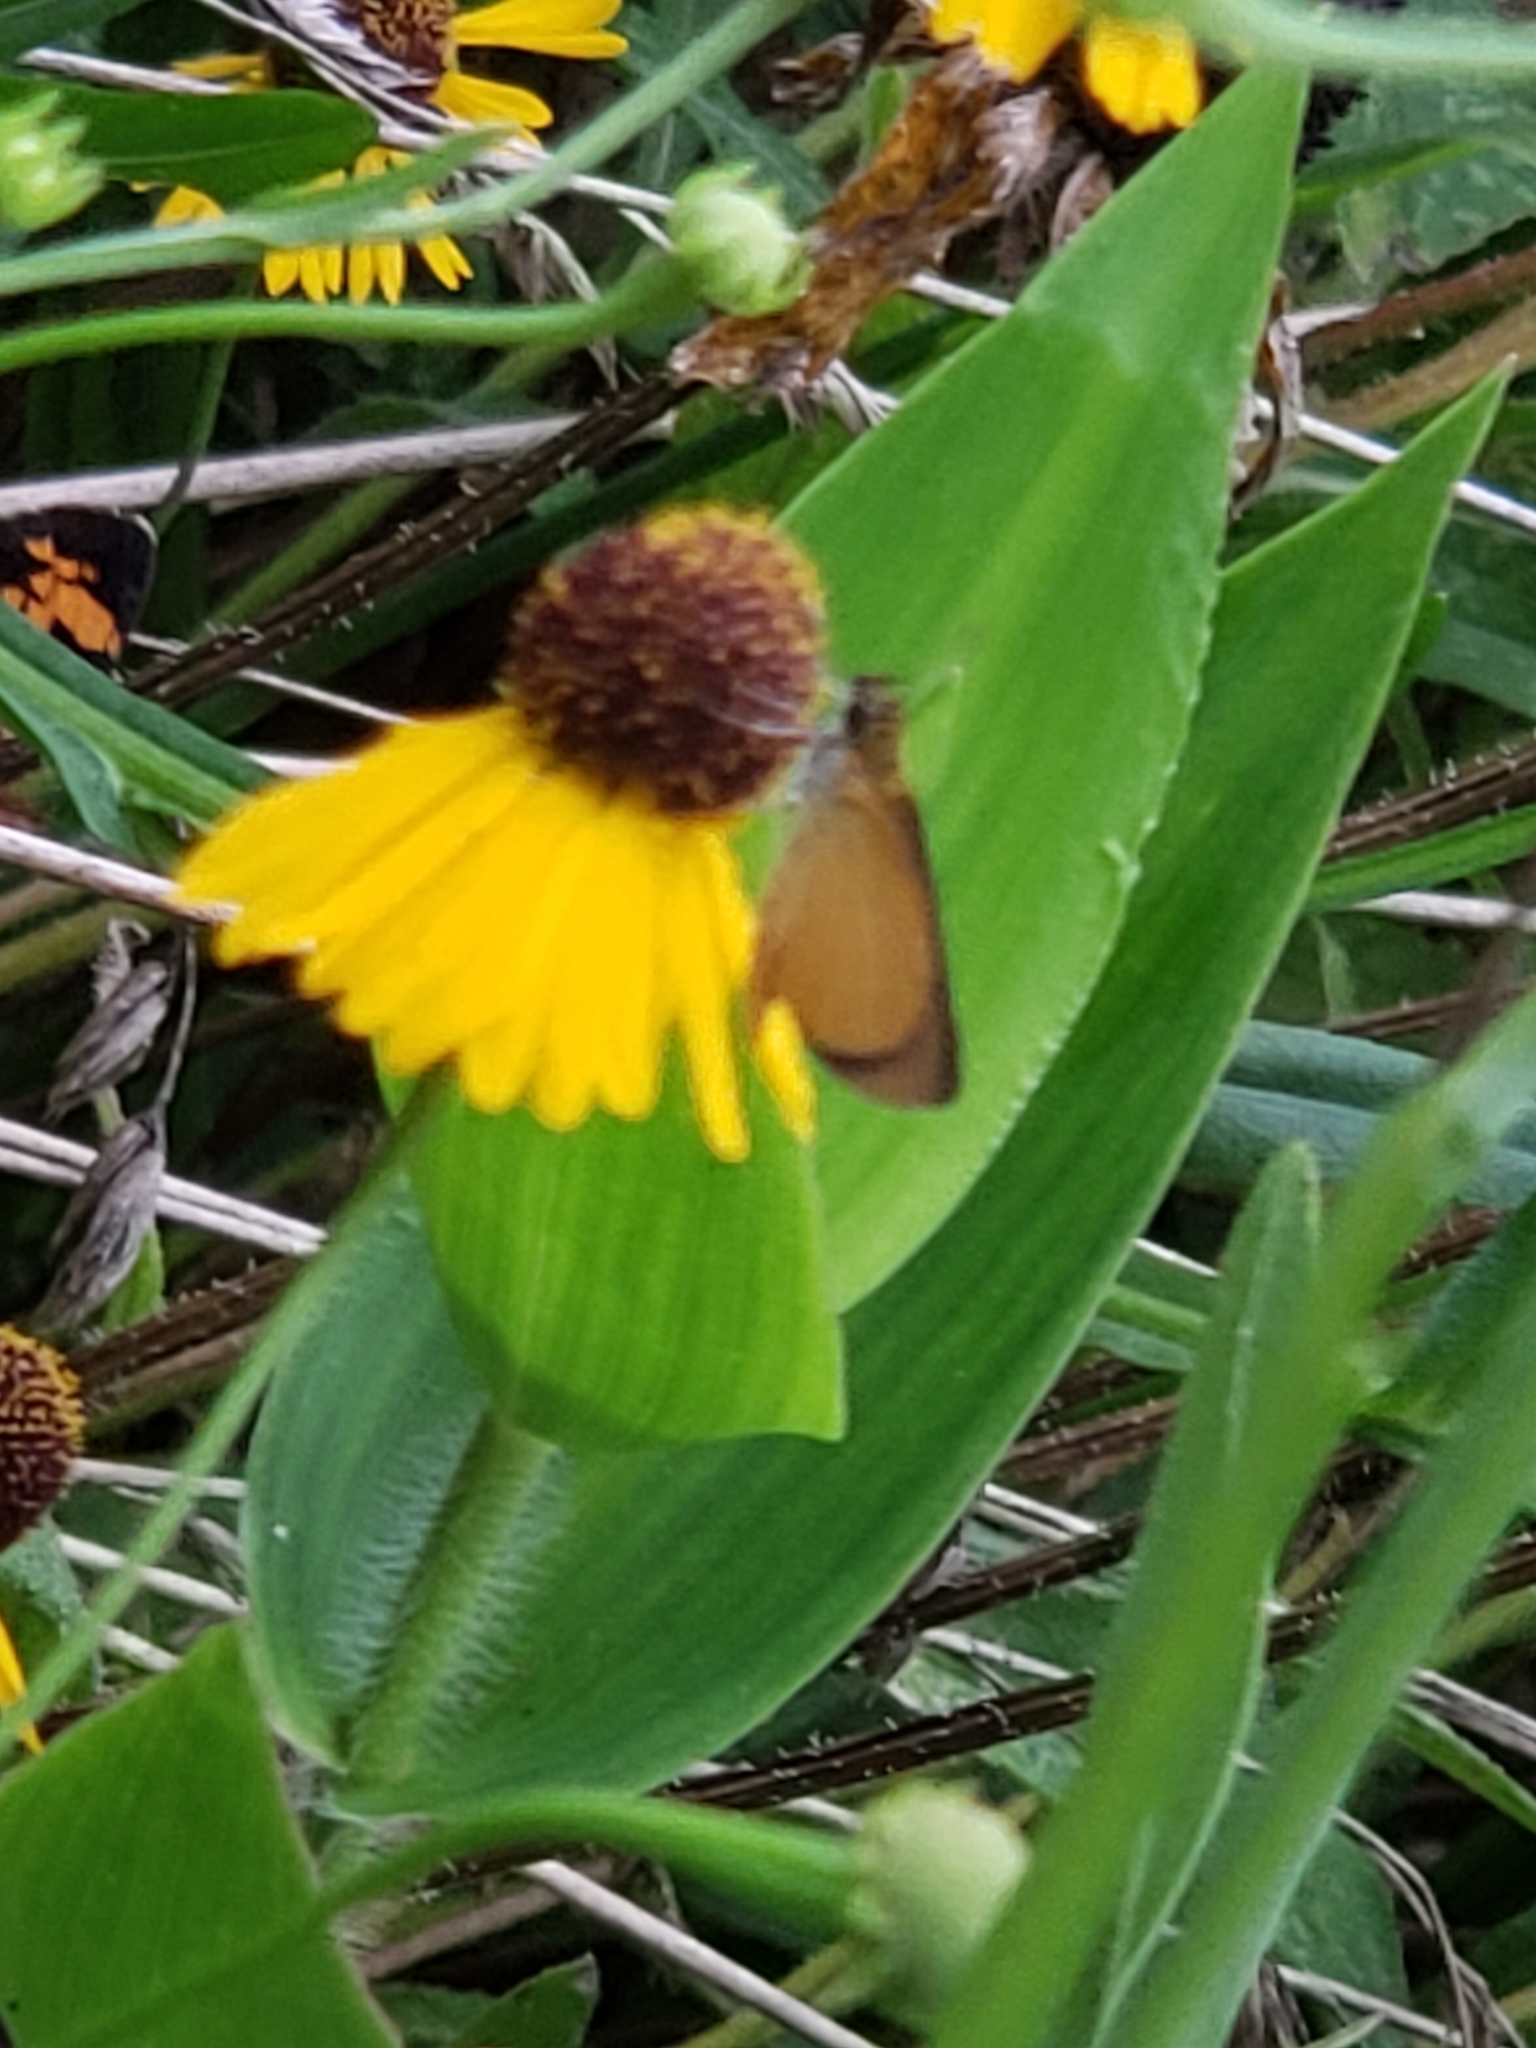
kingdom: Animalia
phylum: Arthropoda
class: Insecta
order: Lepidoptera
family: Hesperiidae
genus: Ancyloxypha
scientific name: Ancyloxypha numitor
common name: Least skipper
